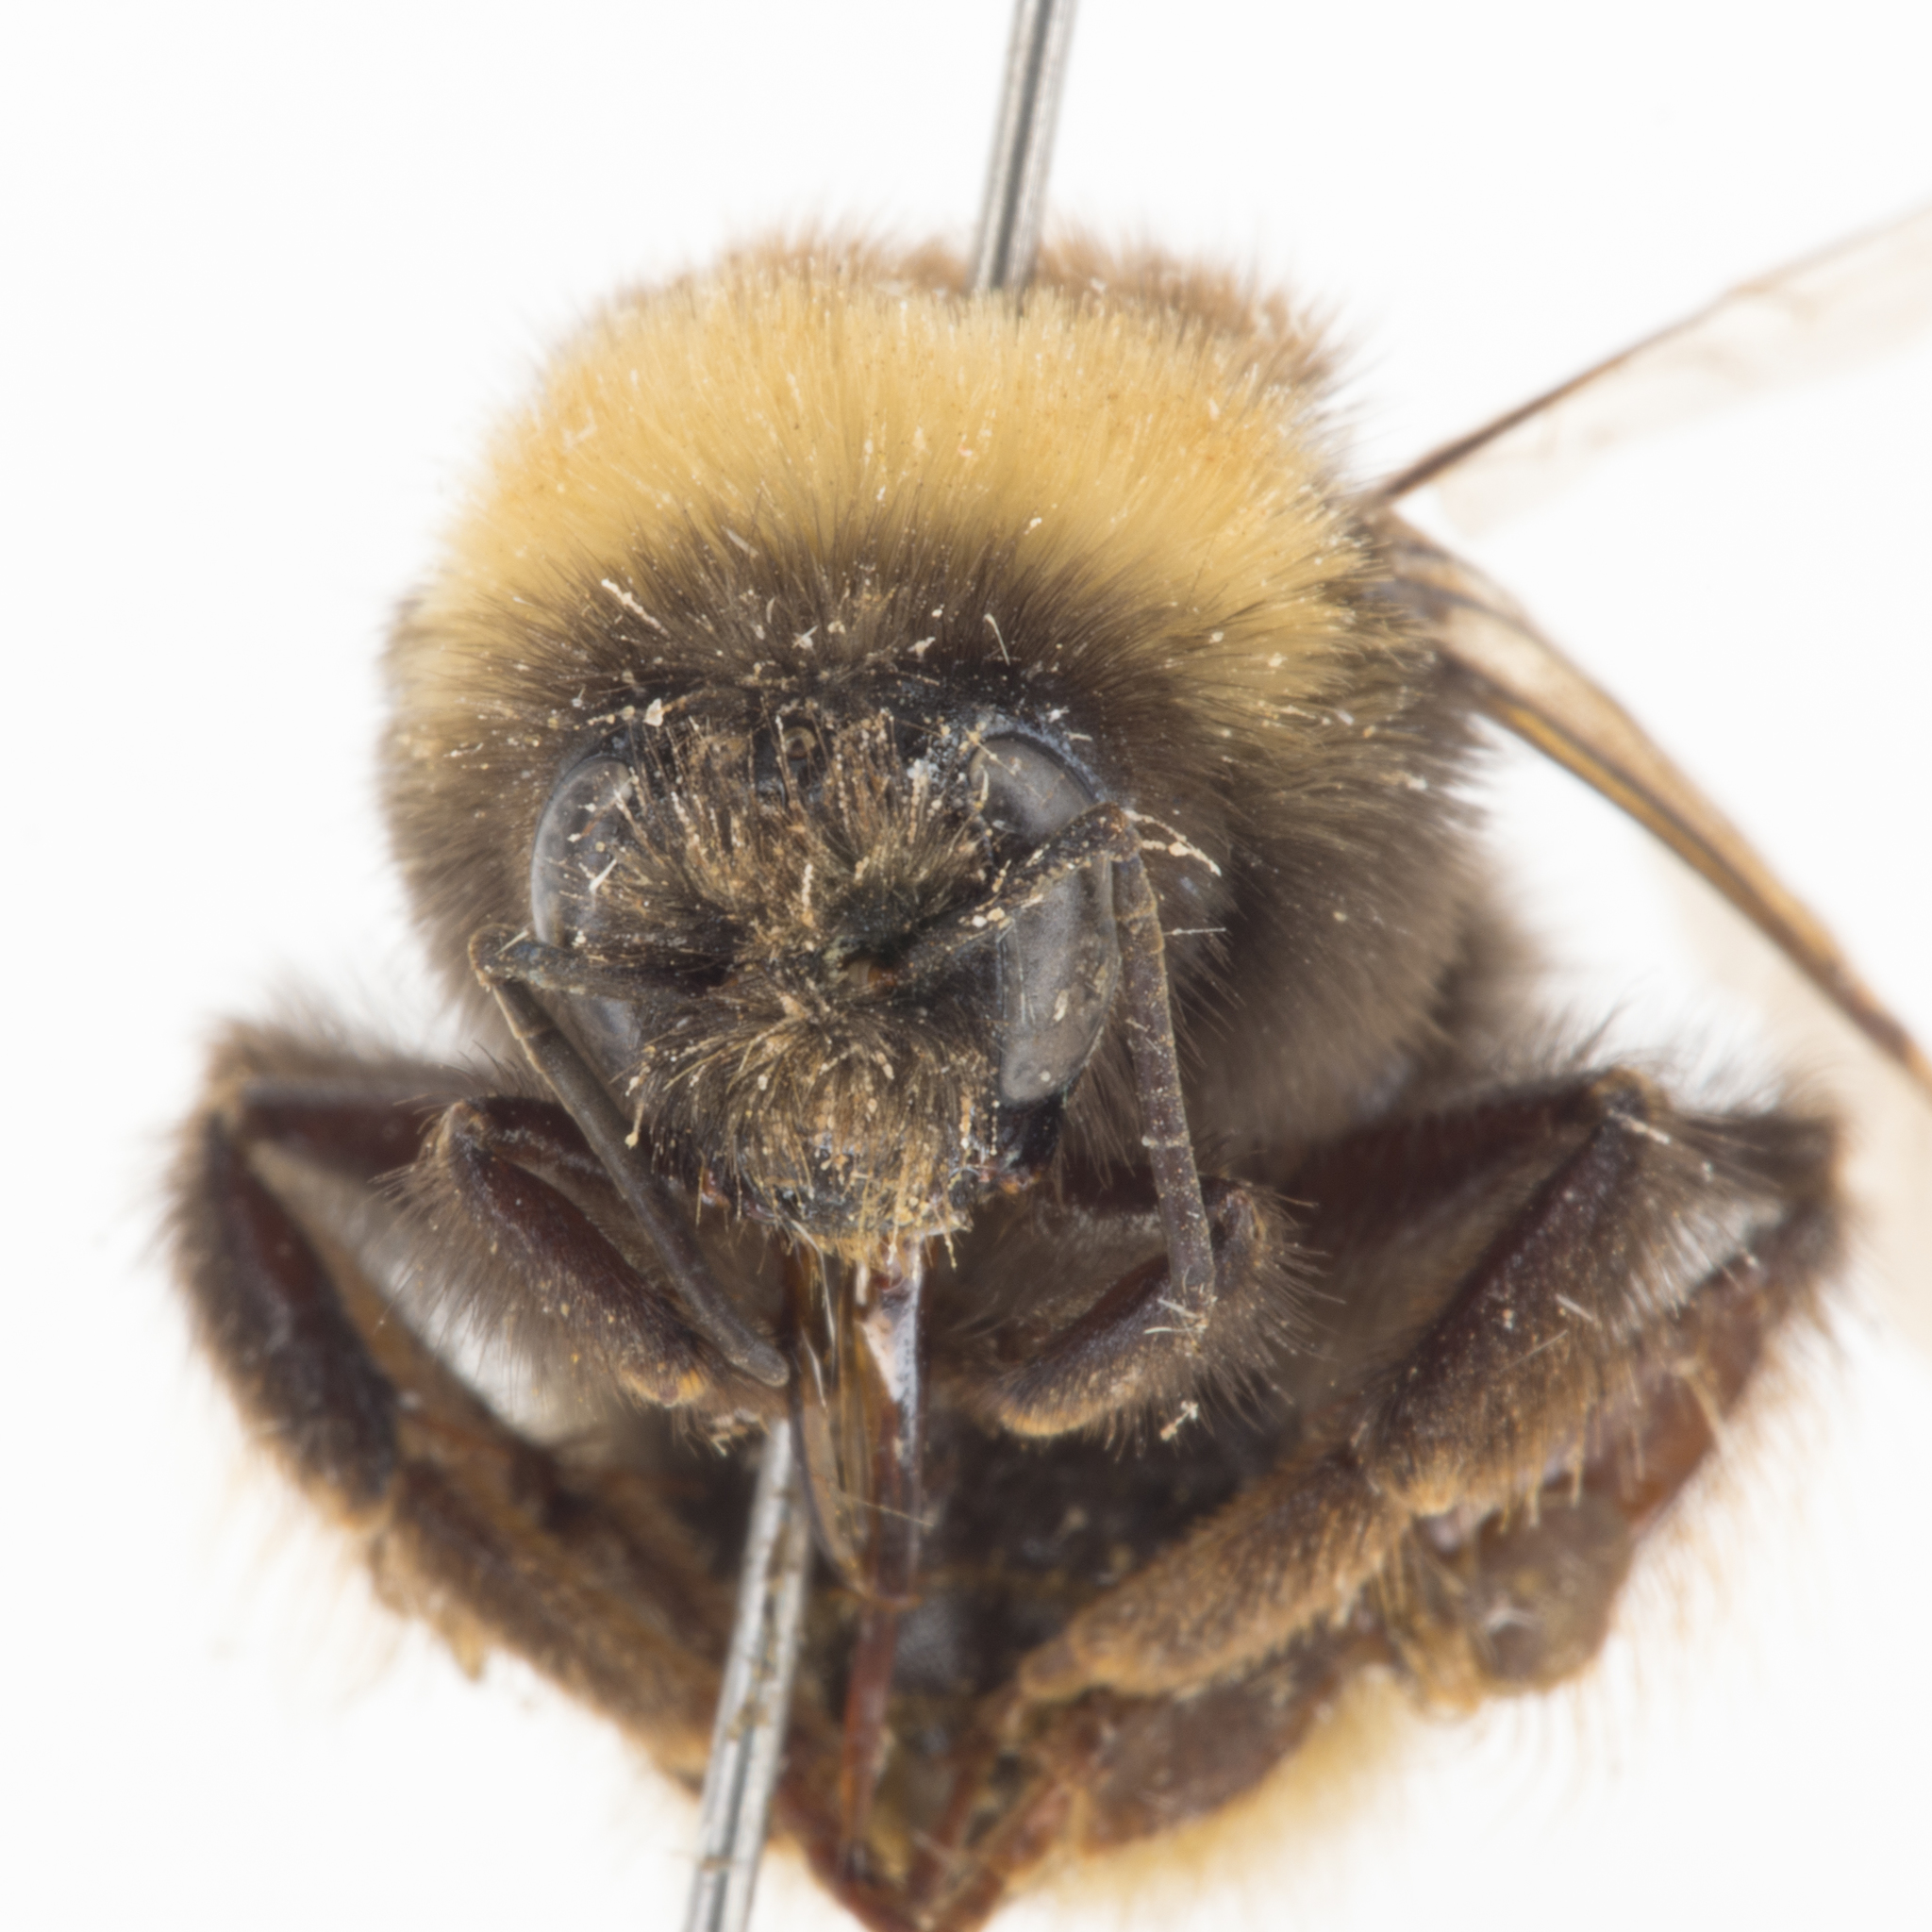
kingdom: Animalia
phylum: Arthropoda
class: Insecta
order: Hymenoptera
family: Apidae
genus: Bombus
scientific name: Bombus occidentalis
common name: Western bumble bee
